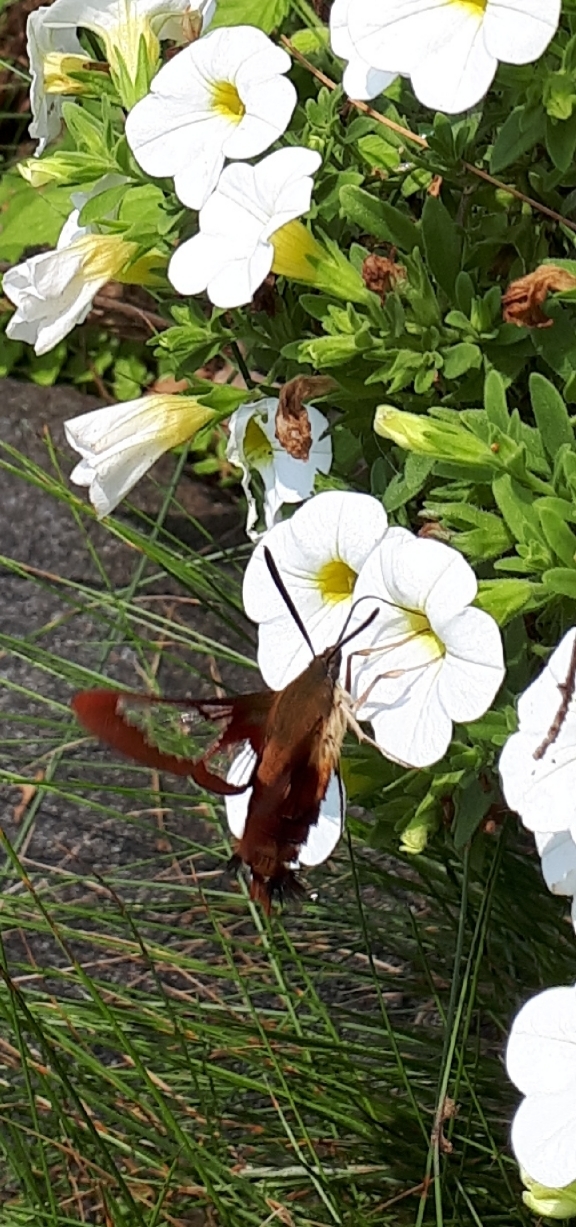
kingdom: Animalia
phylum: Arthropoda
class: Insecta
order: Lepidoptera
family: Sphingidae
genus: Hemaris
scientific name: Hemaris thysbe
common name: Common clear-wing
